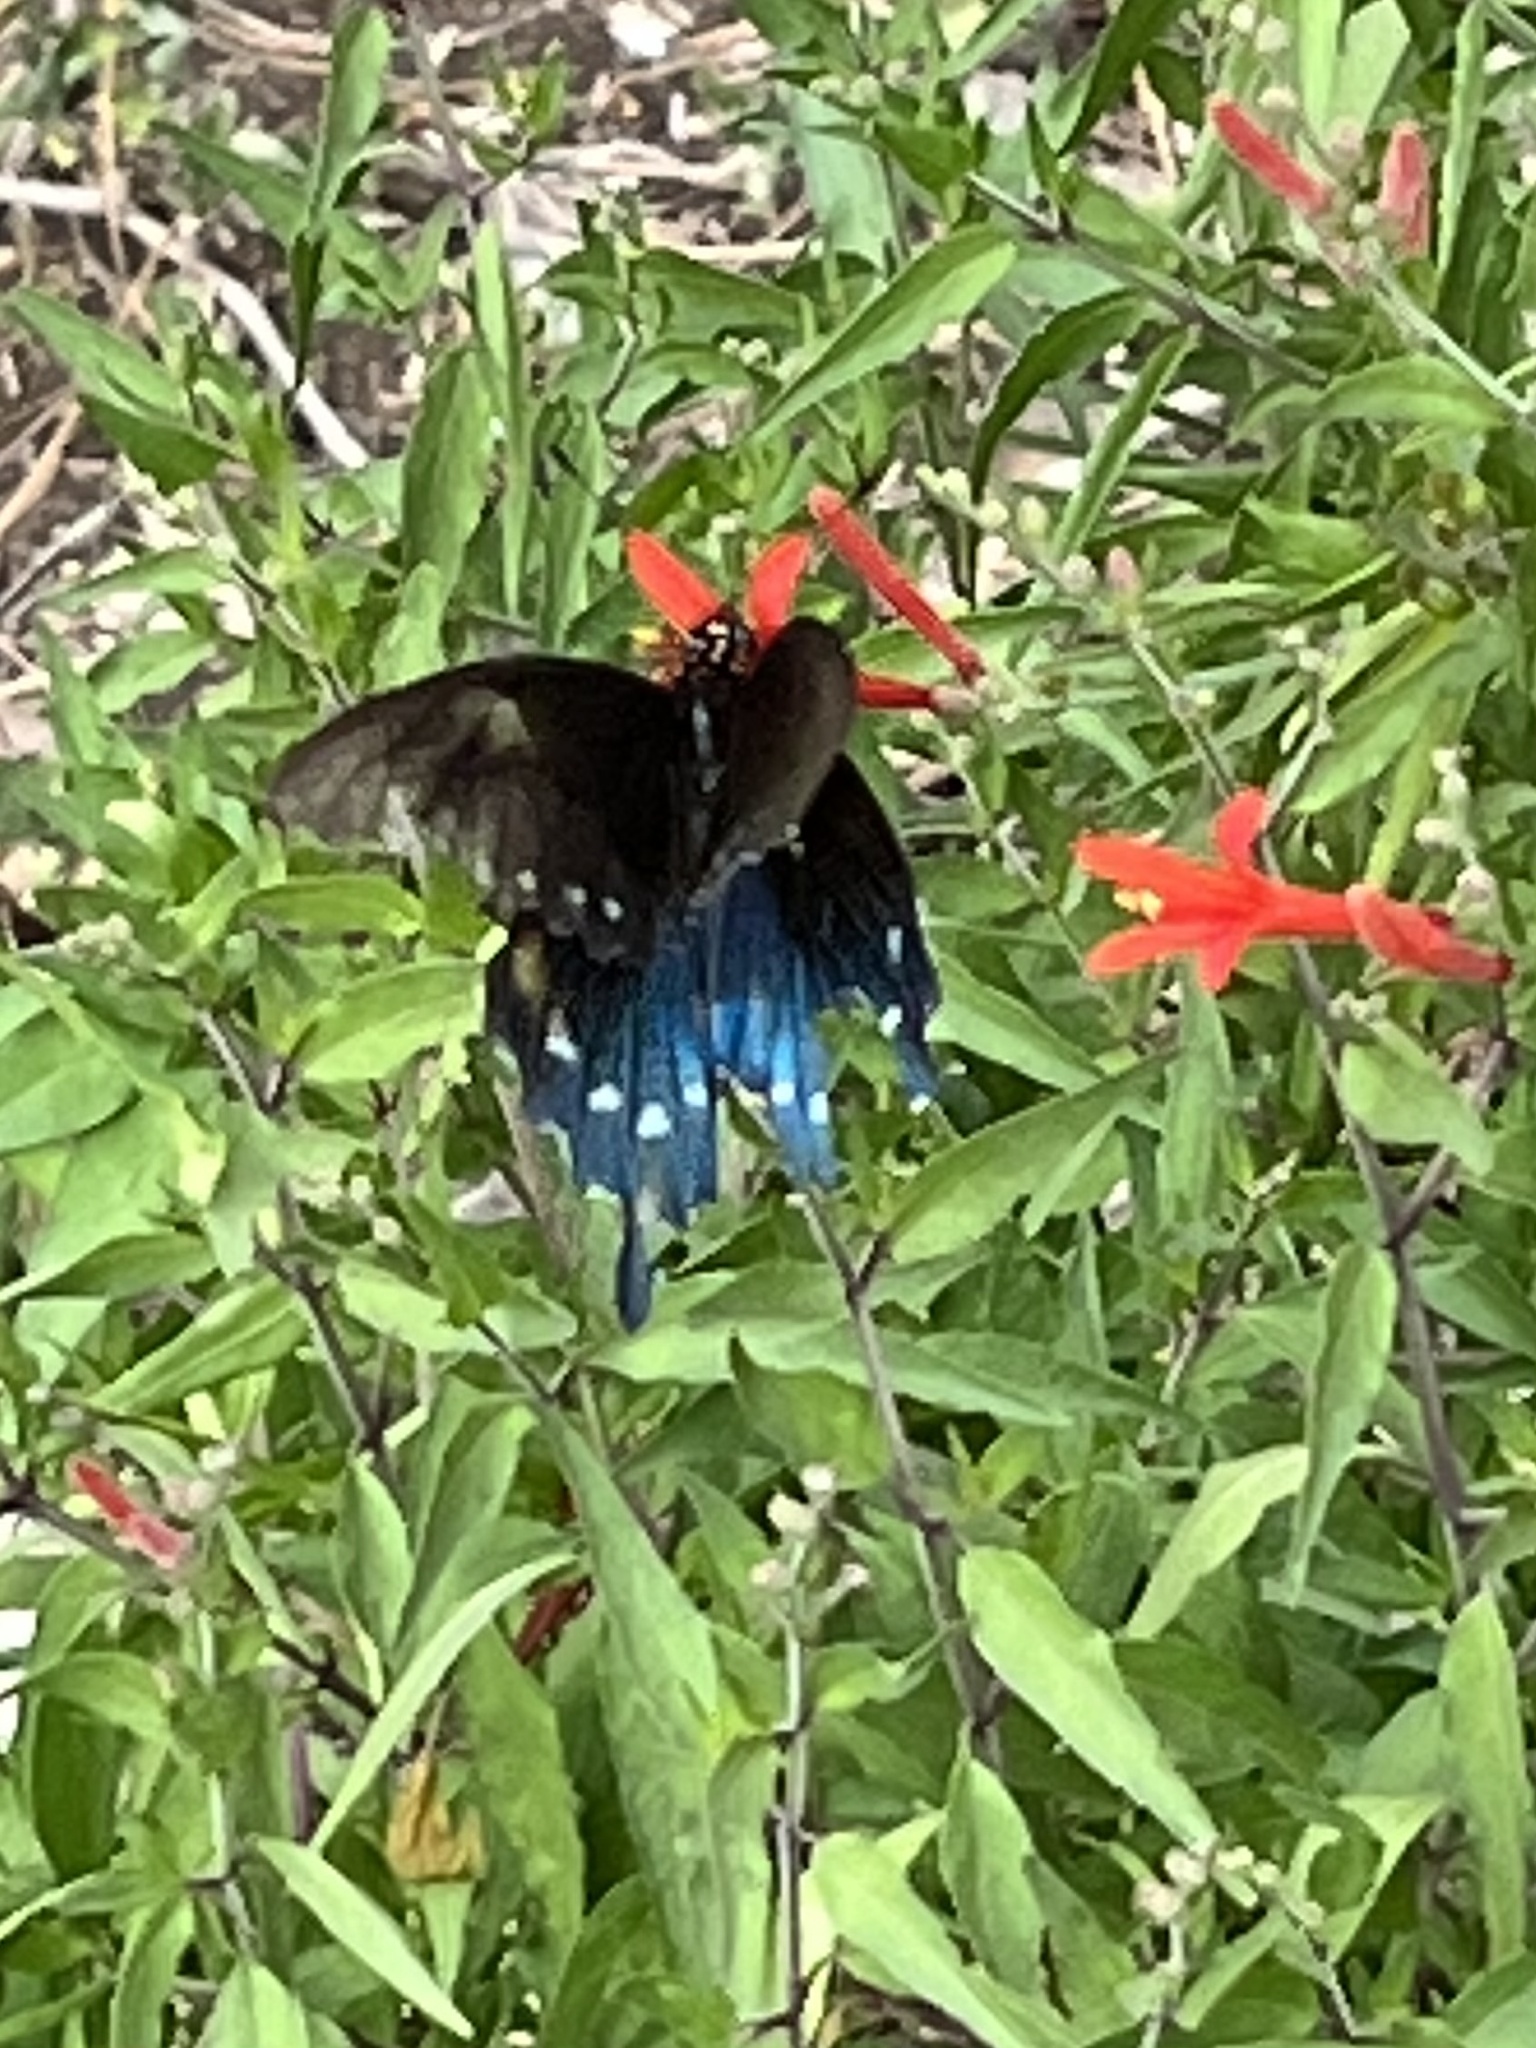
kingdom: Animalia
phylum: Arthropoda
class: Insecta
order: Lepidoptera
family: Papilionidae
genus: Battus
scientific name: Battus philenor
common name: Pipevine swallowtail
